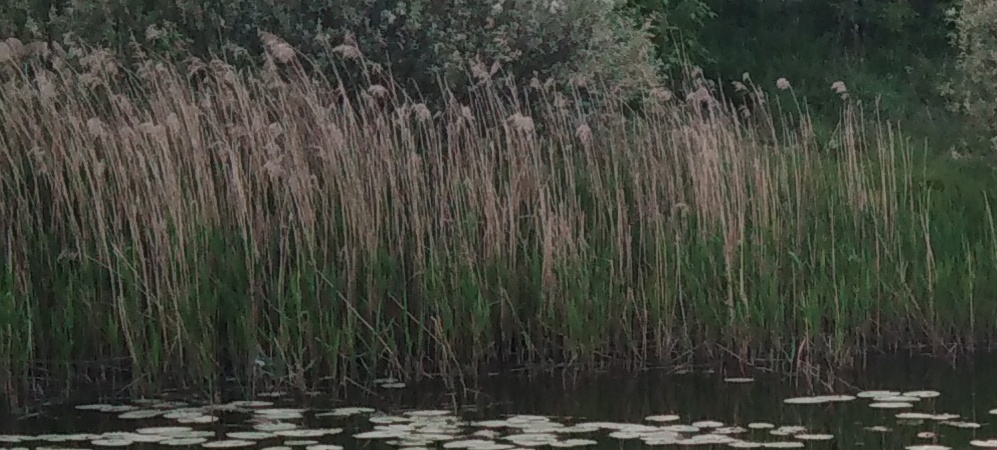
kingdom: Plantae
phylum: Tracheophyta
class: Liliopsida
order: Poales
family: Poaceae
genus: Phragmites
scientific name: Phragmites australis
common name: Common reed
